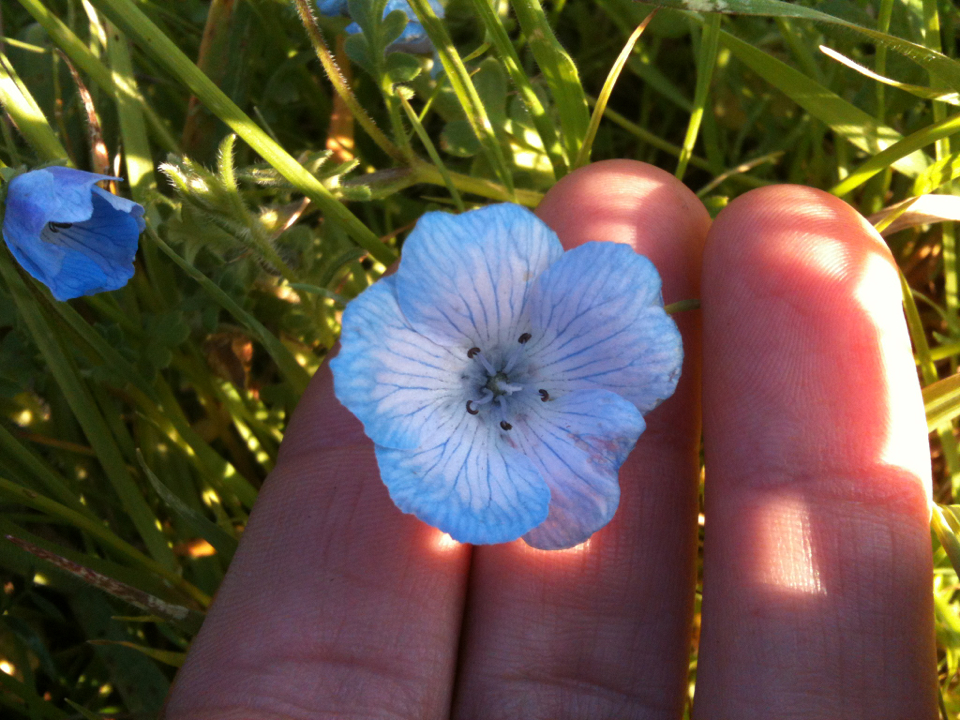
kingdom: Plantae
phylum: Tracheophyta
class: Magnoliopsida
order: Boraginales
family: Hydrophyllaceae
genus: Nemophila
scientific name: Nemophila menziesii
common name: Baby's-blue-eyes
